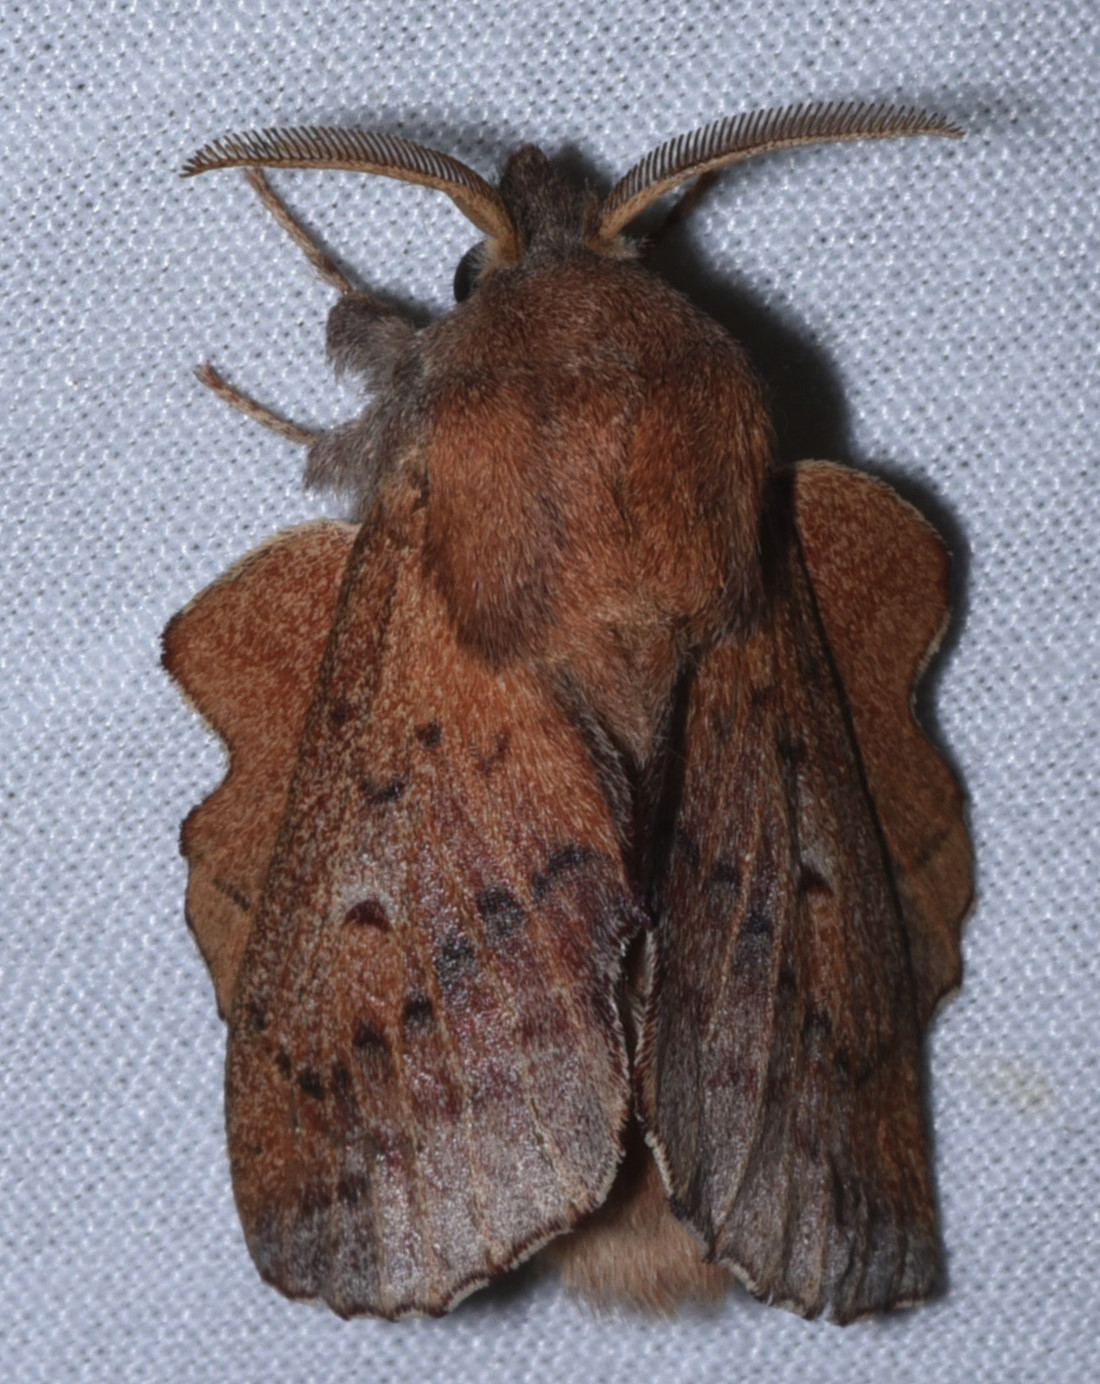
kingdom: Animalia
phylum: Arthropoda
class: Insecta
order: Lepidoptera
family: Lasiocampidae
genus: Phyllodesma
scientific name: Phyllodesma americana
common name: American lappet moth
